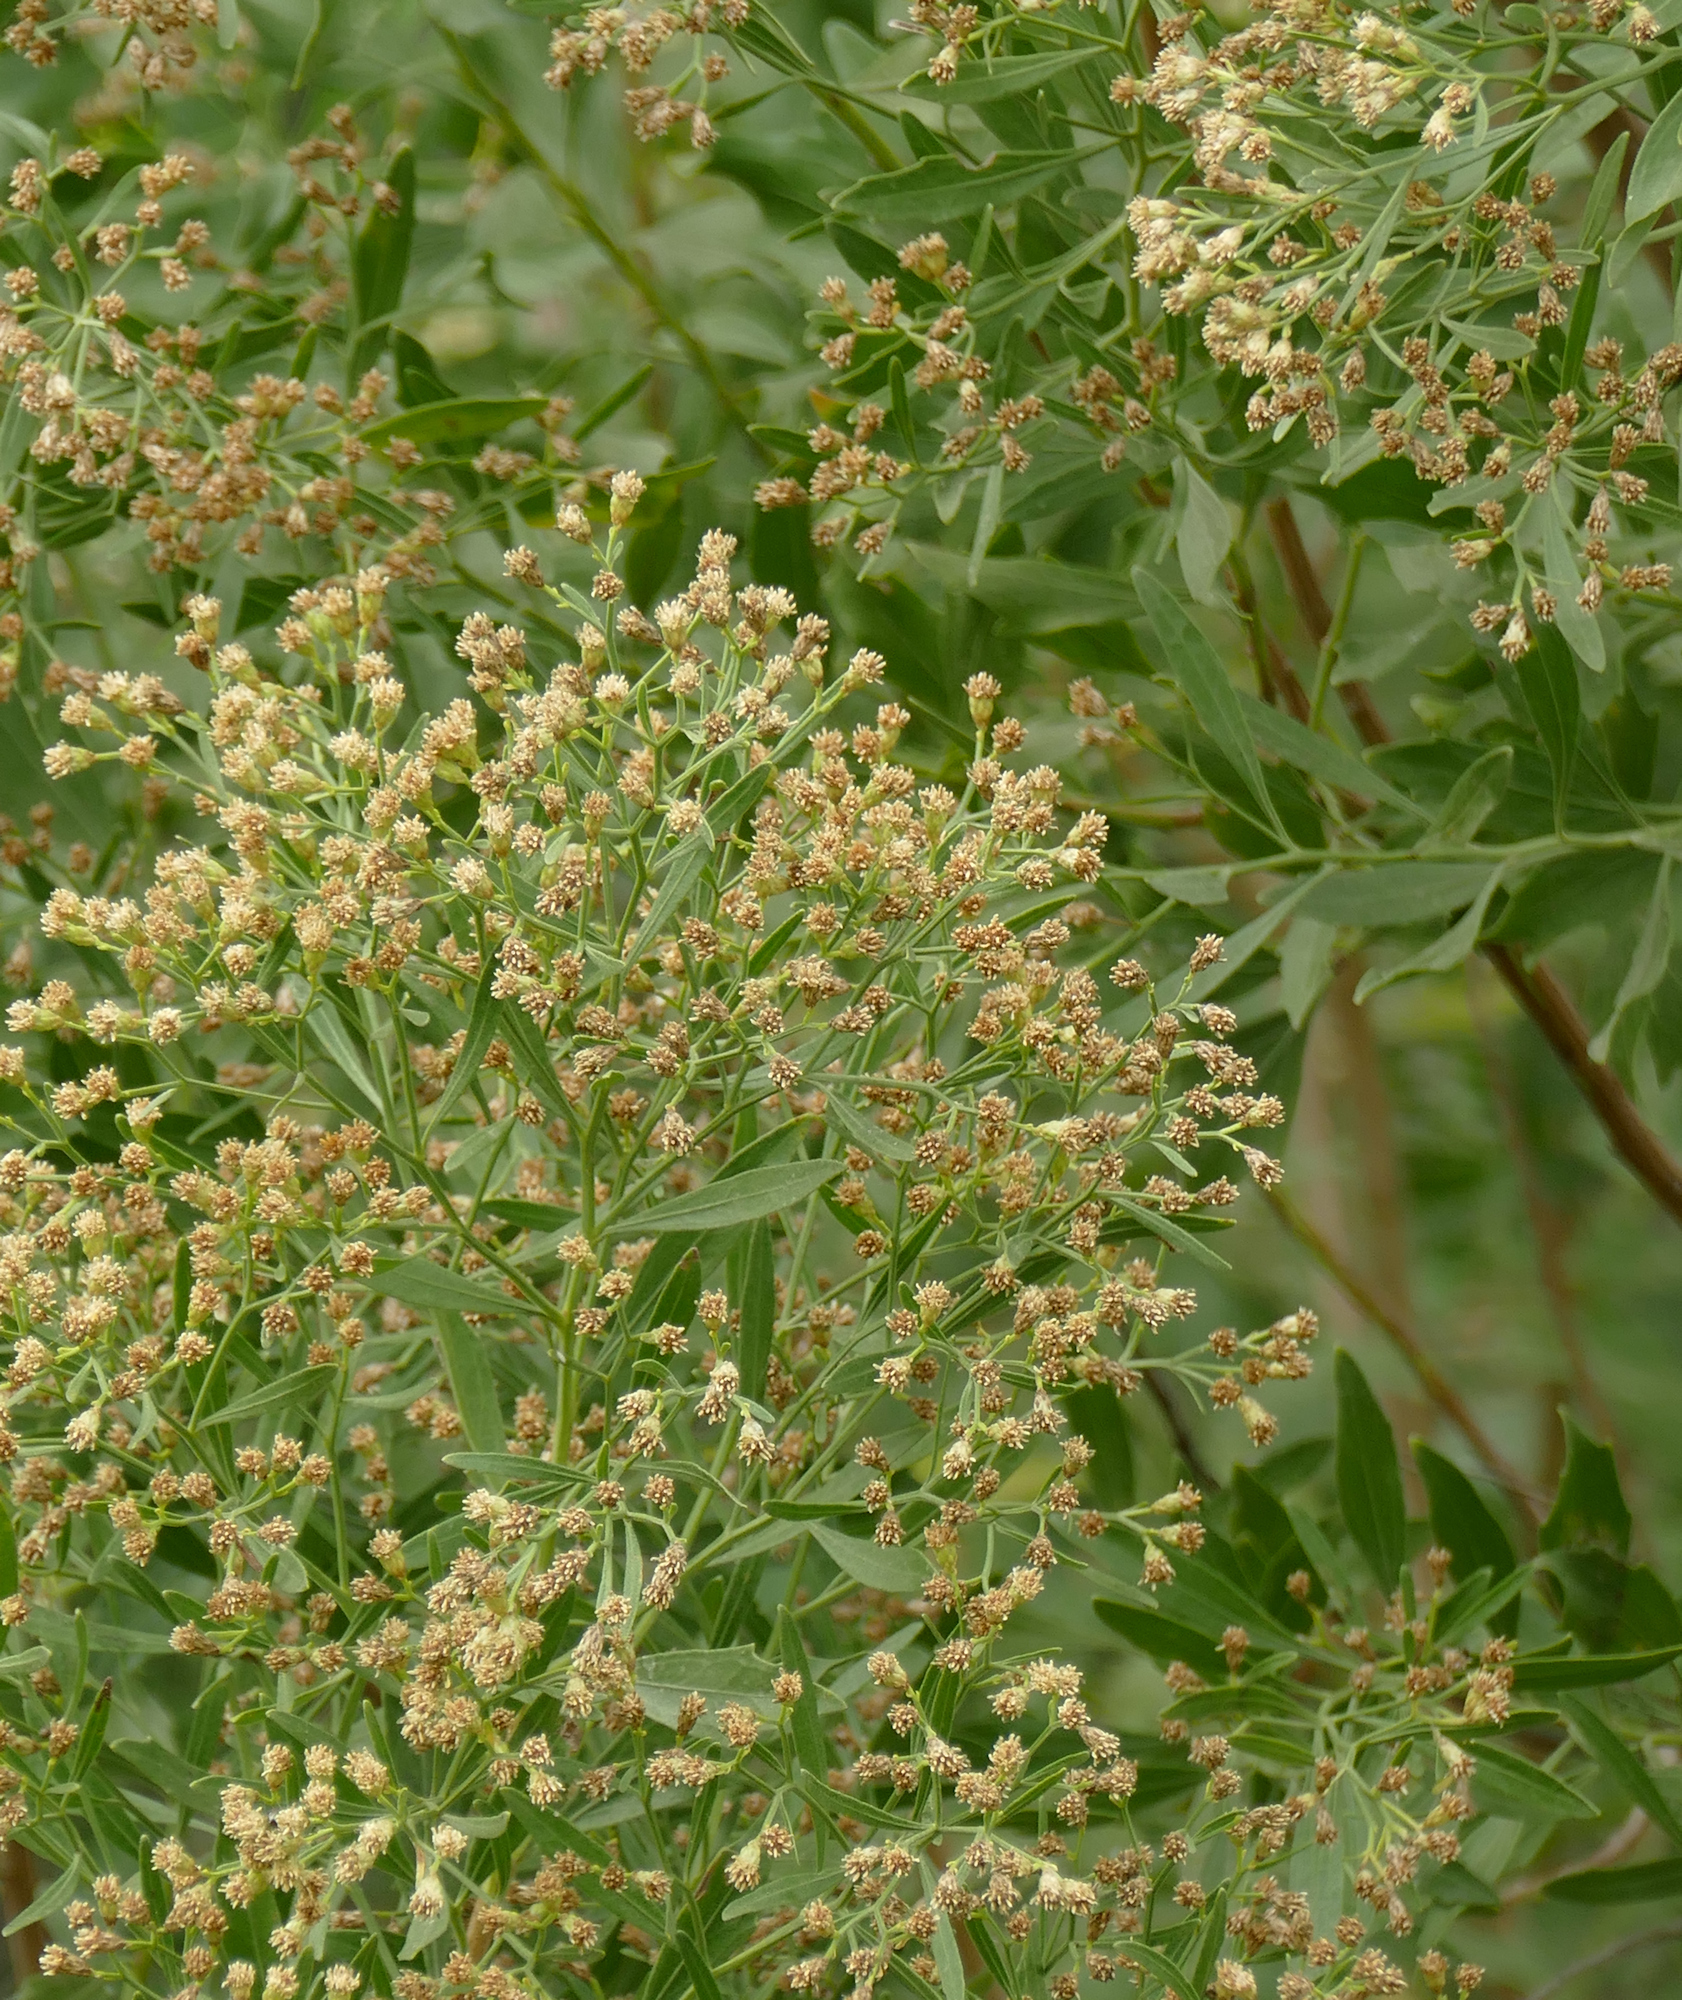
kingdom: Plantae
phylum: Tracheophyta
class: Magnoliopsida
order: Asterales
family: Asteraceae
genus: Baccharis
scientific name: Baccharis halimifolia
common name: Eastern baccharis
